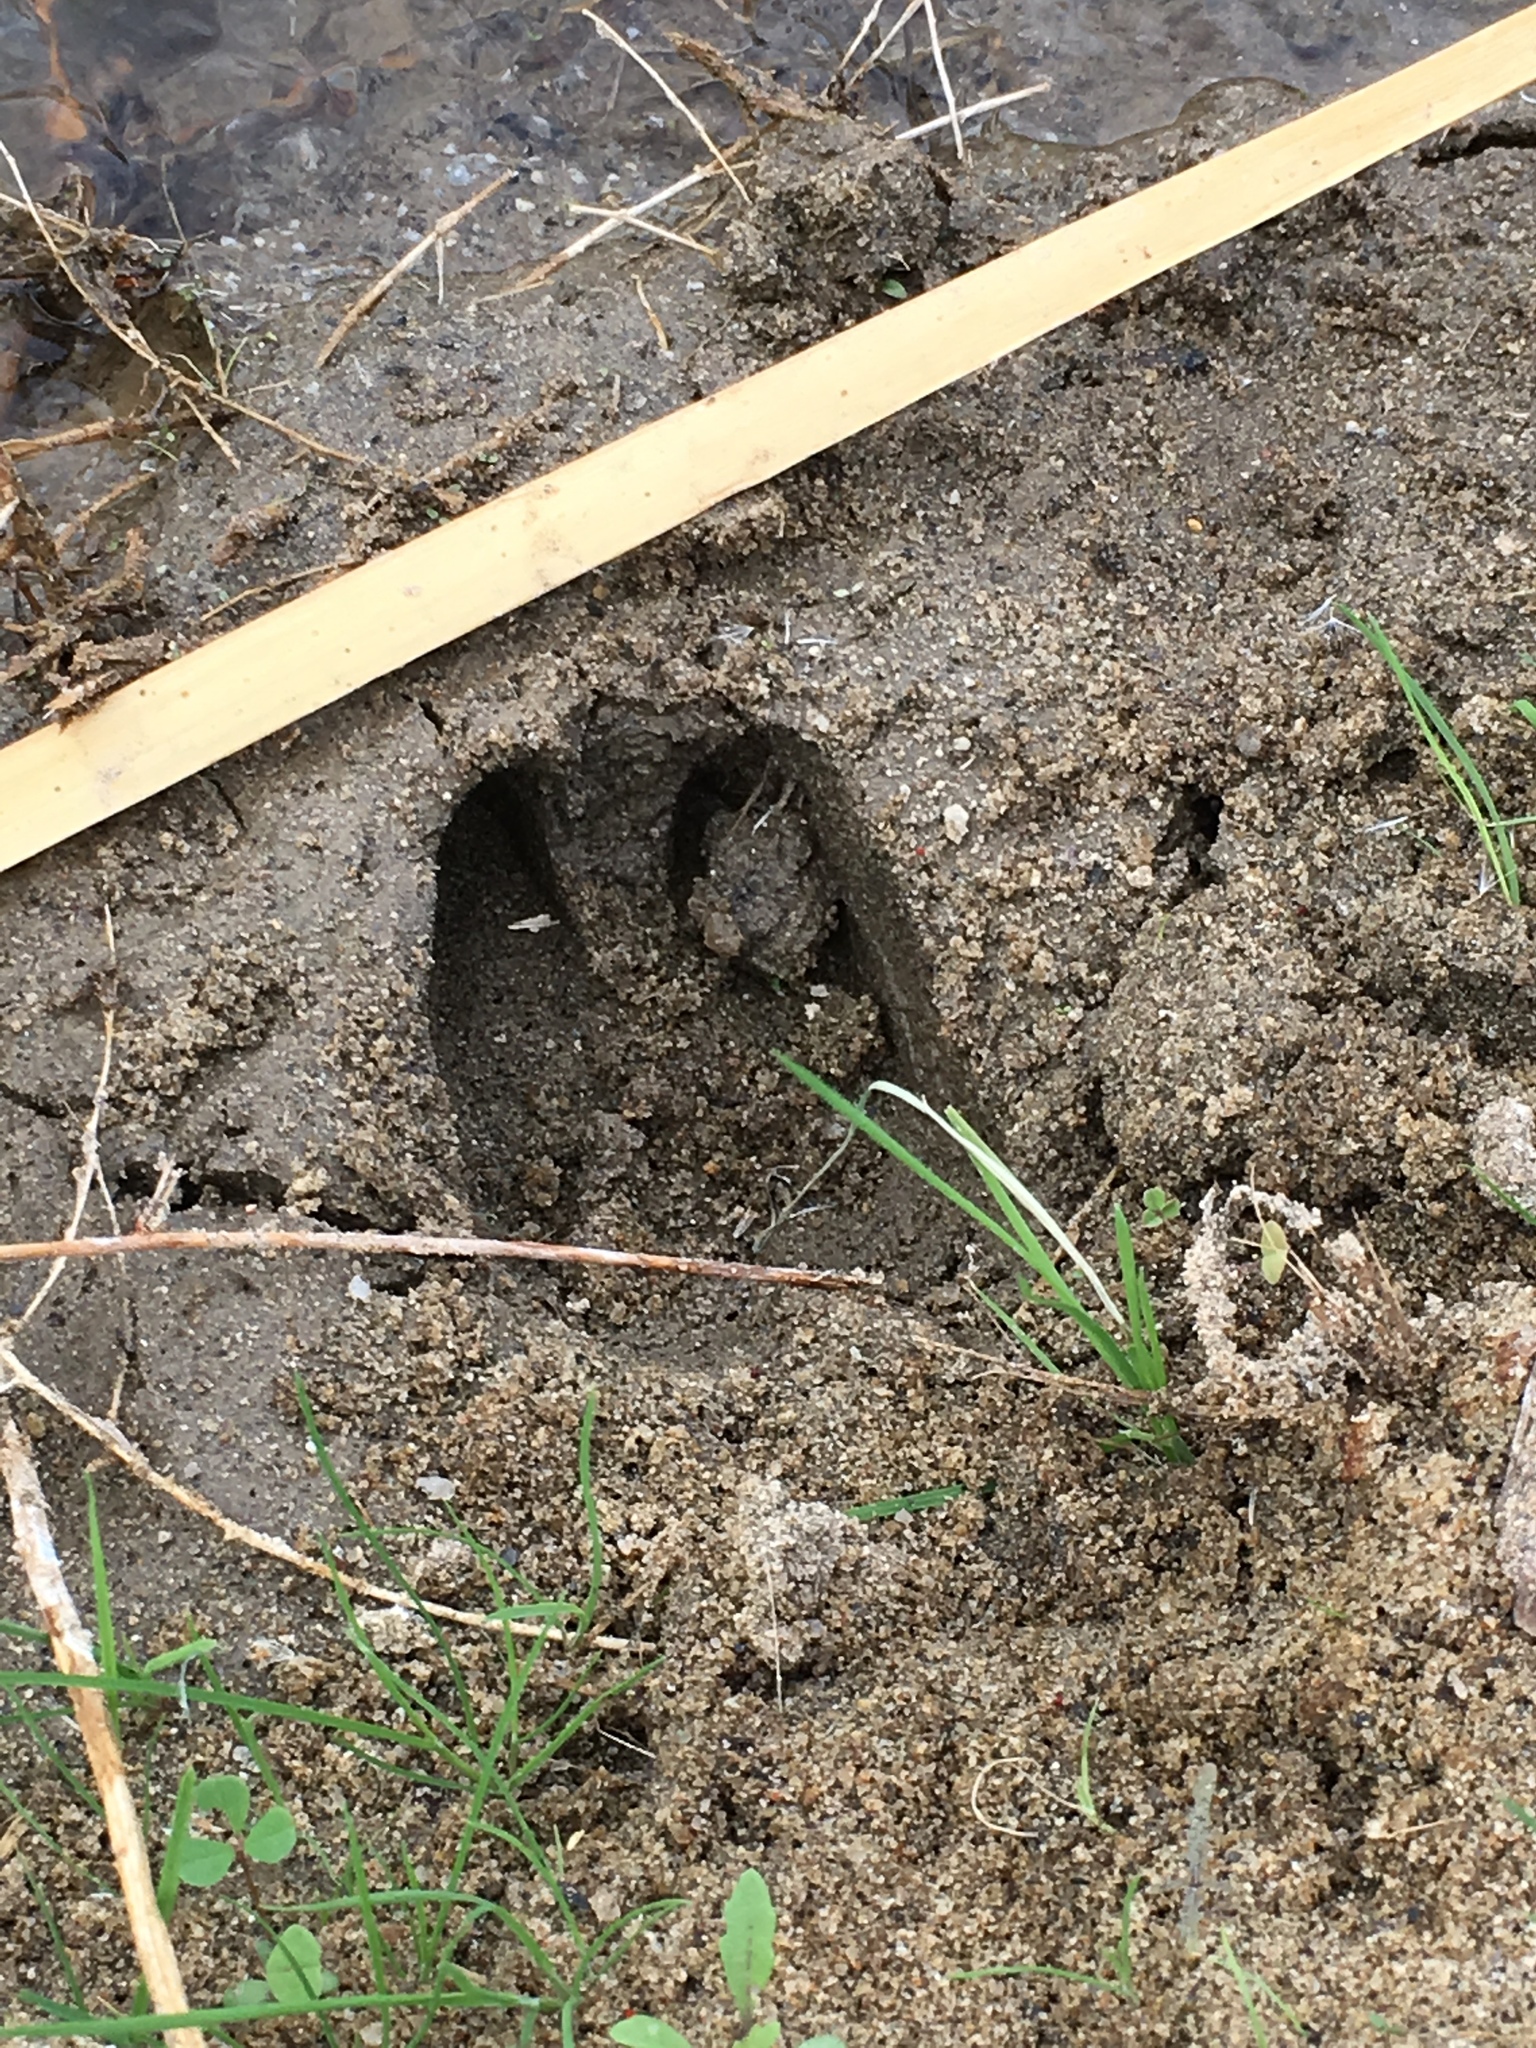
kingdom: Animalia
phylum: Chordata
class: Mammalia
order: Artiodactyla
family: Bovidae
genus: Ovis
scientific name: Ovis canadensis
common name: Bighorn sheep
